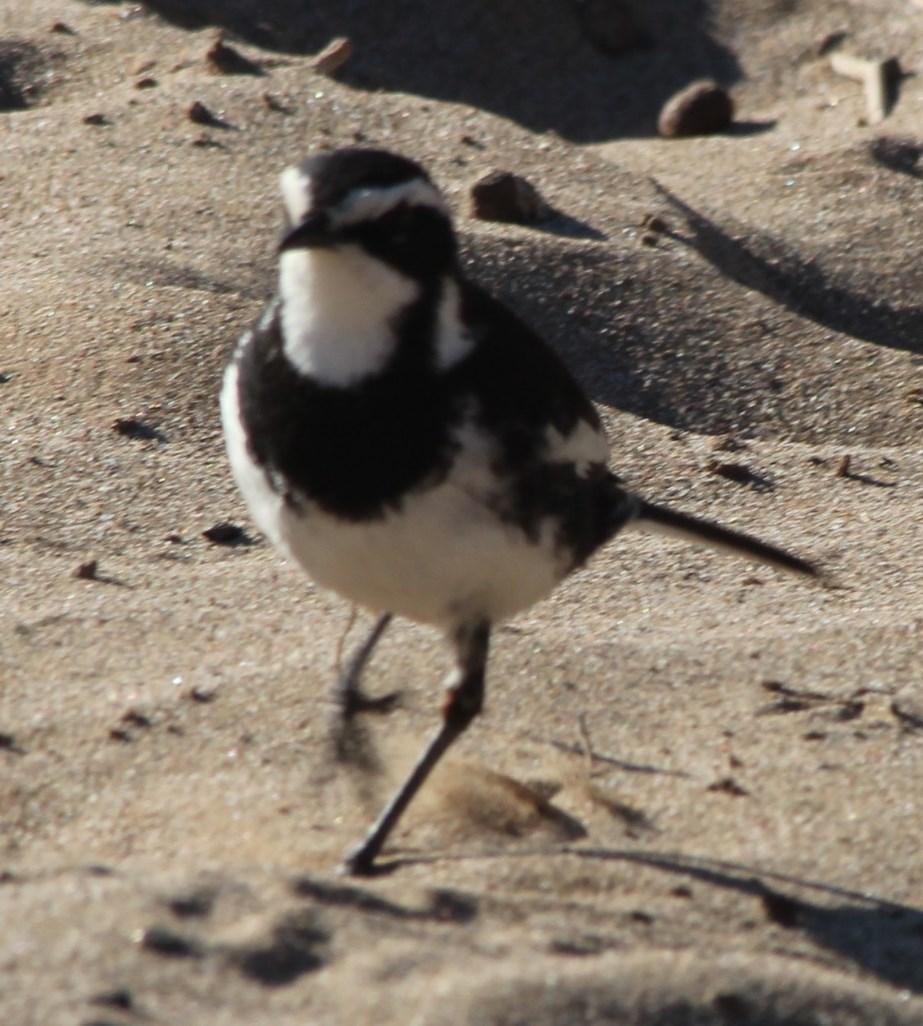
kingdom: Animalia
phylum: Chordata
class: Aves
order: Passeriformes
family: Motacillidae
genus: Motacilla
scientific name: Motacilla aguimp
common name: African pied wagtail
